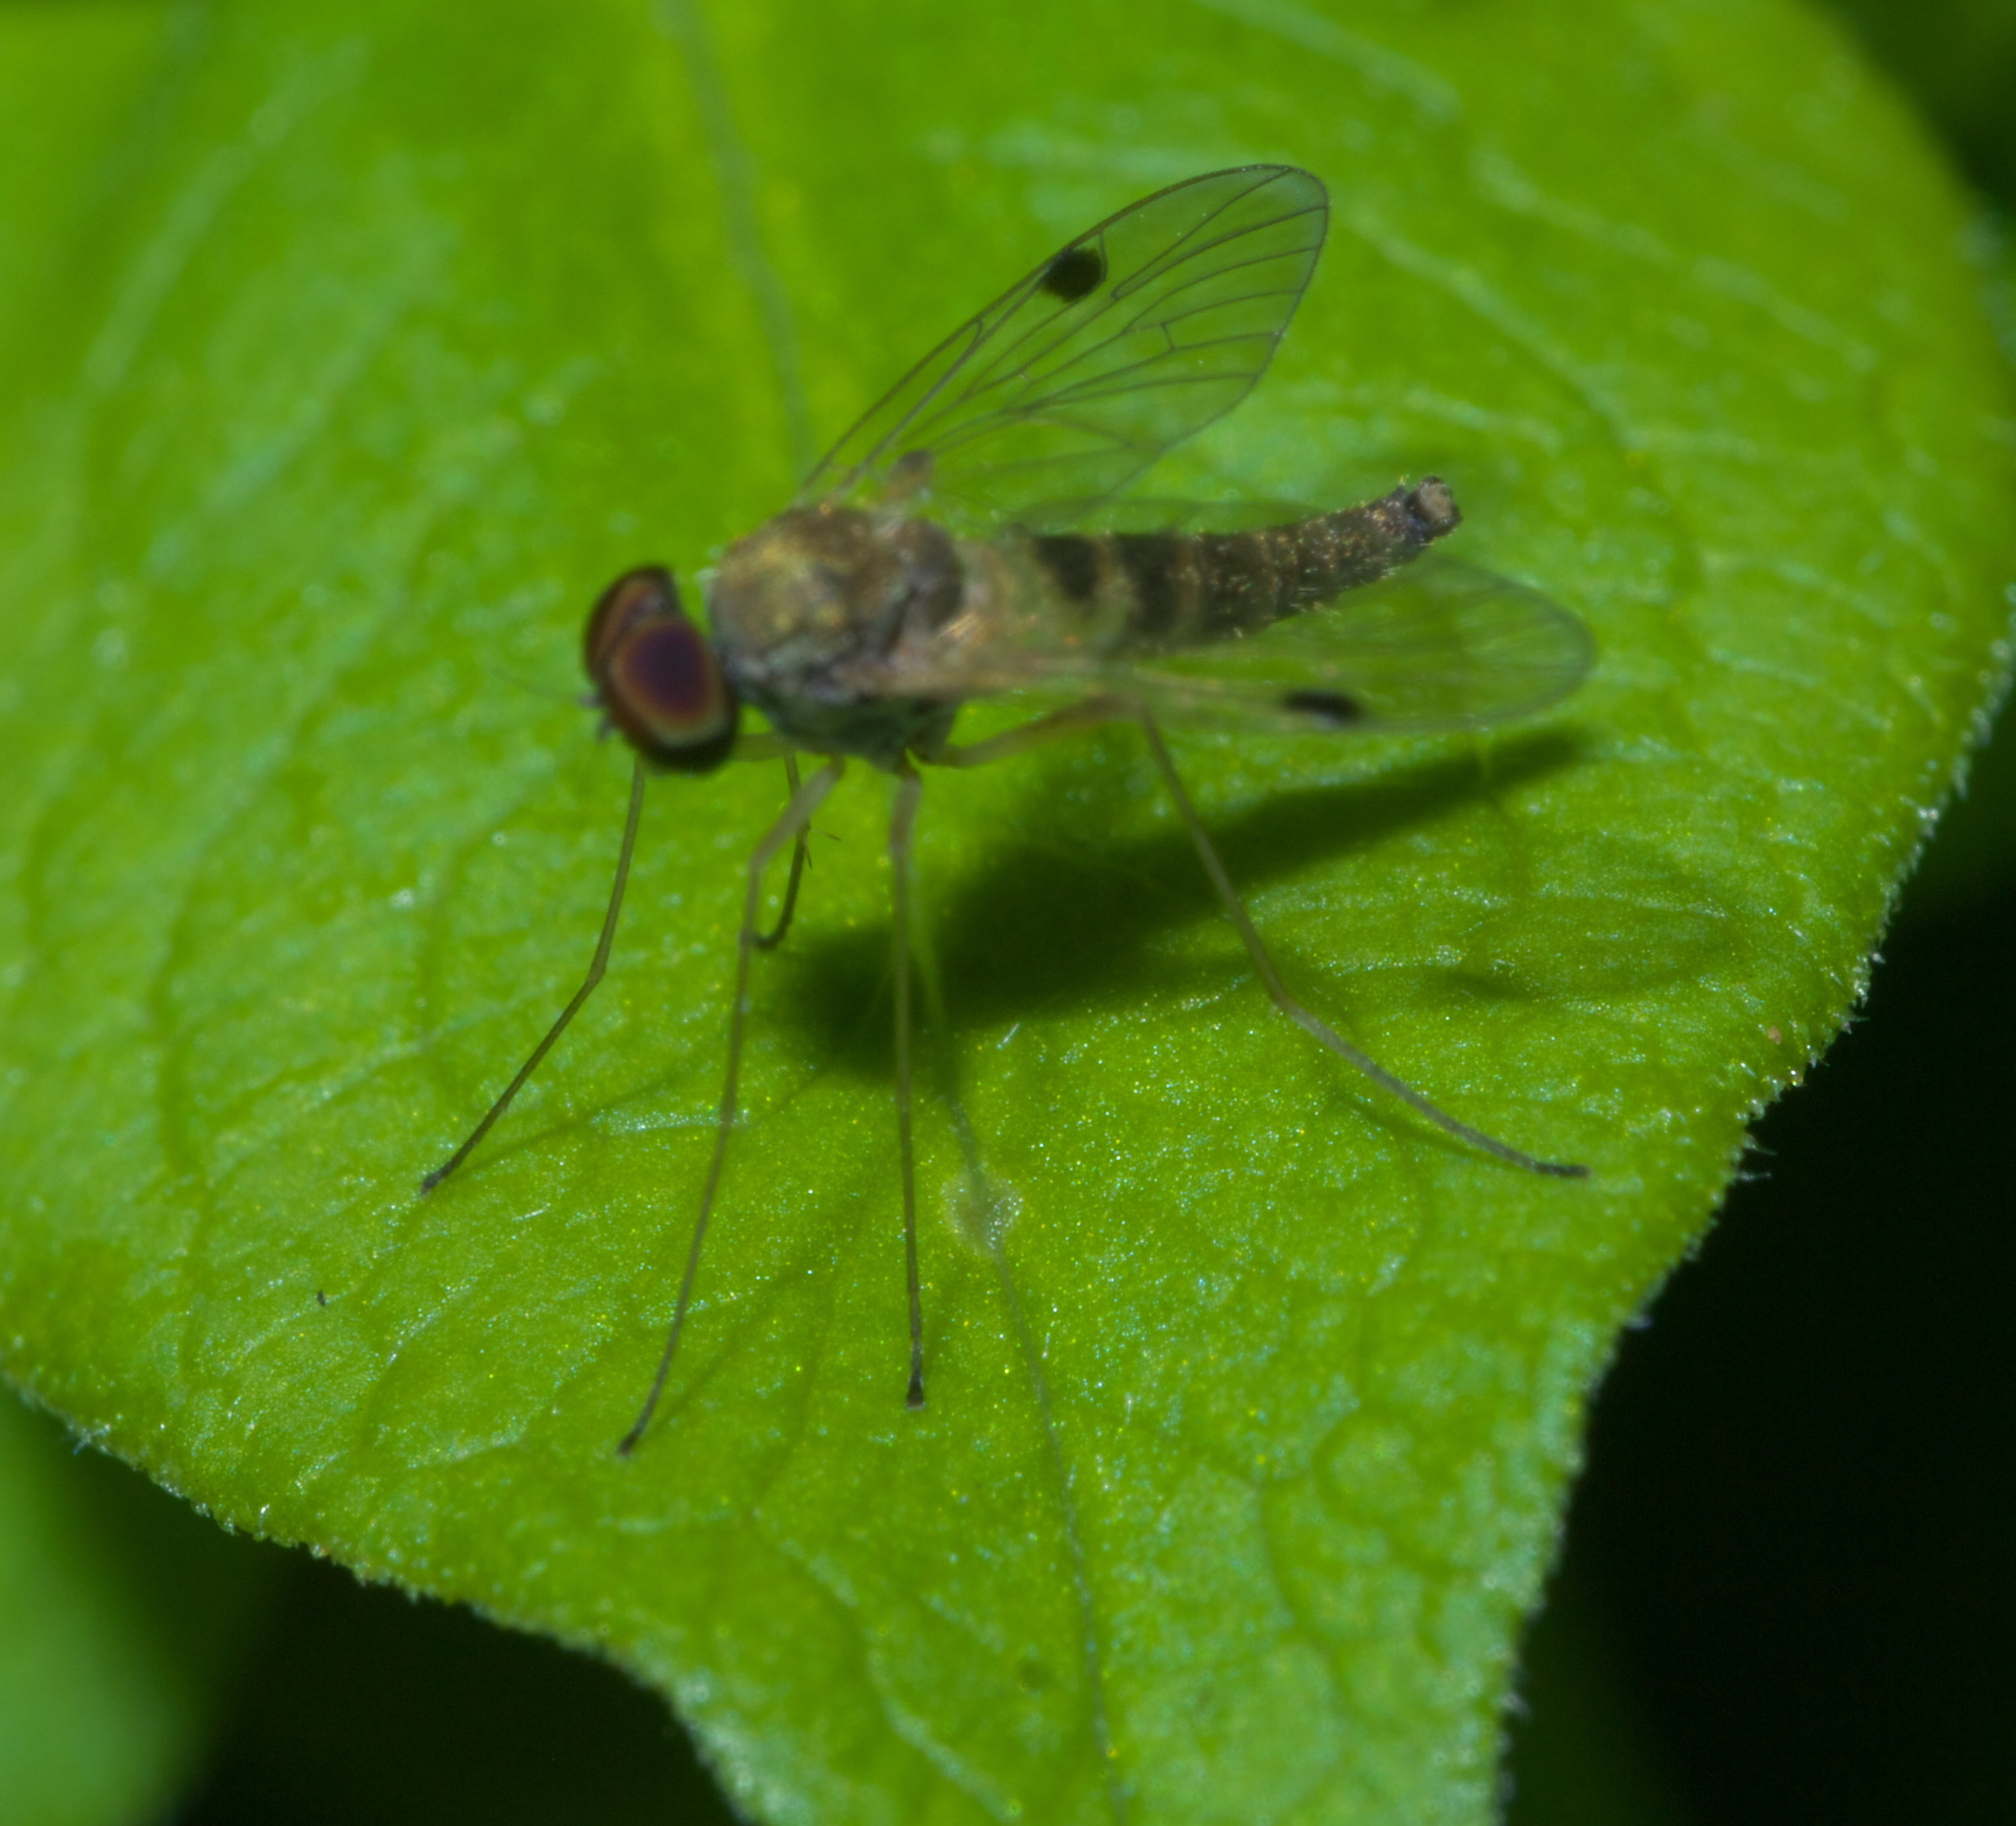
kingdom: Animalia
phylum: Arthropoda
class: Insecta
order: Diptera
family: Rhagionidae
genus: Chrysopilus
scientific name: Chrysopilus modestus
